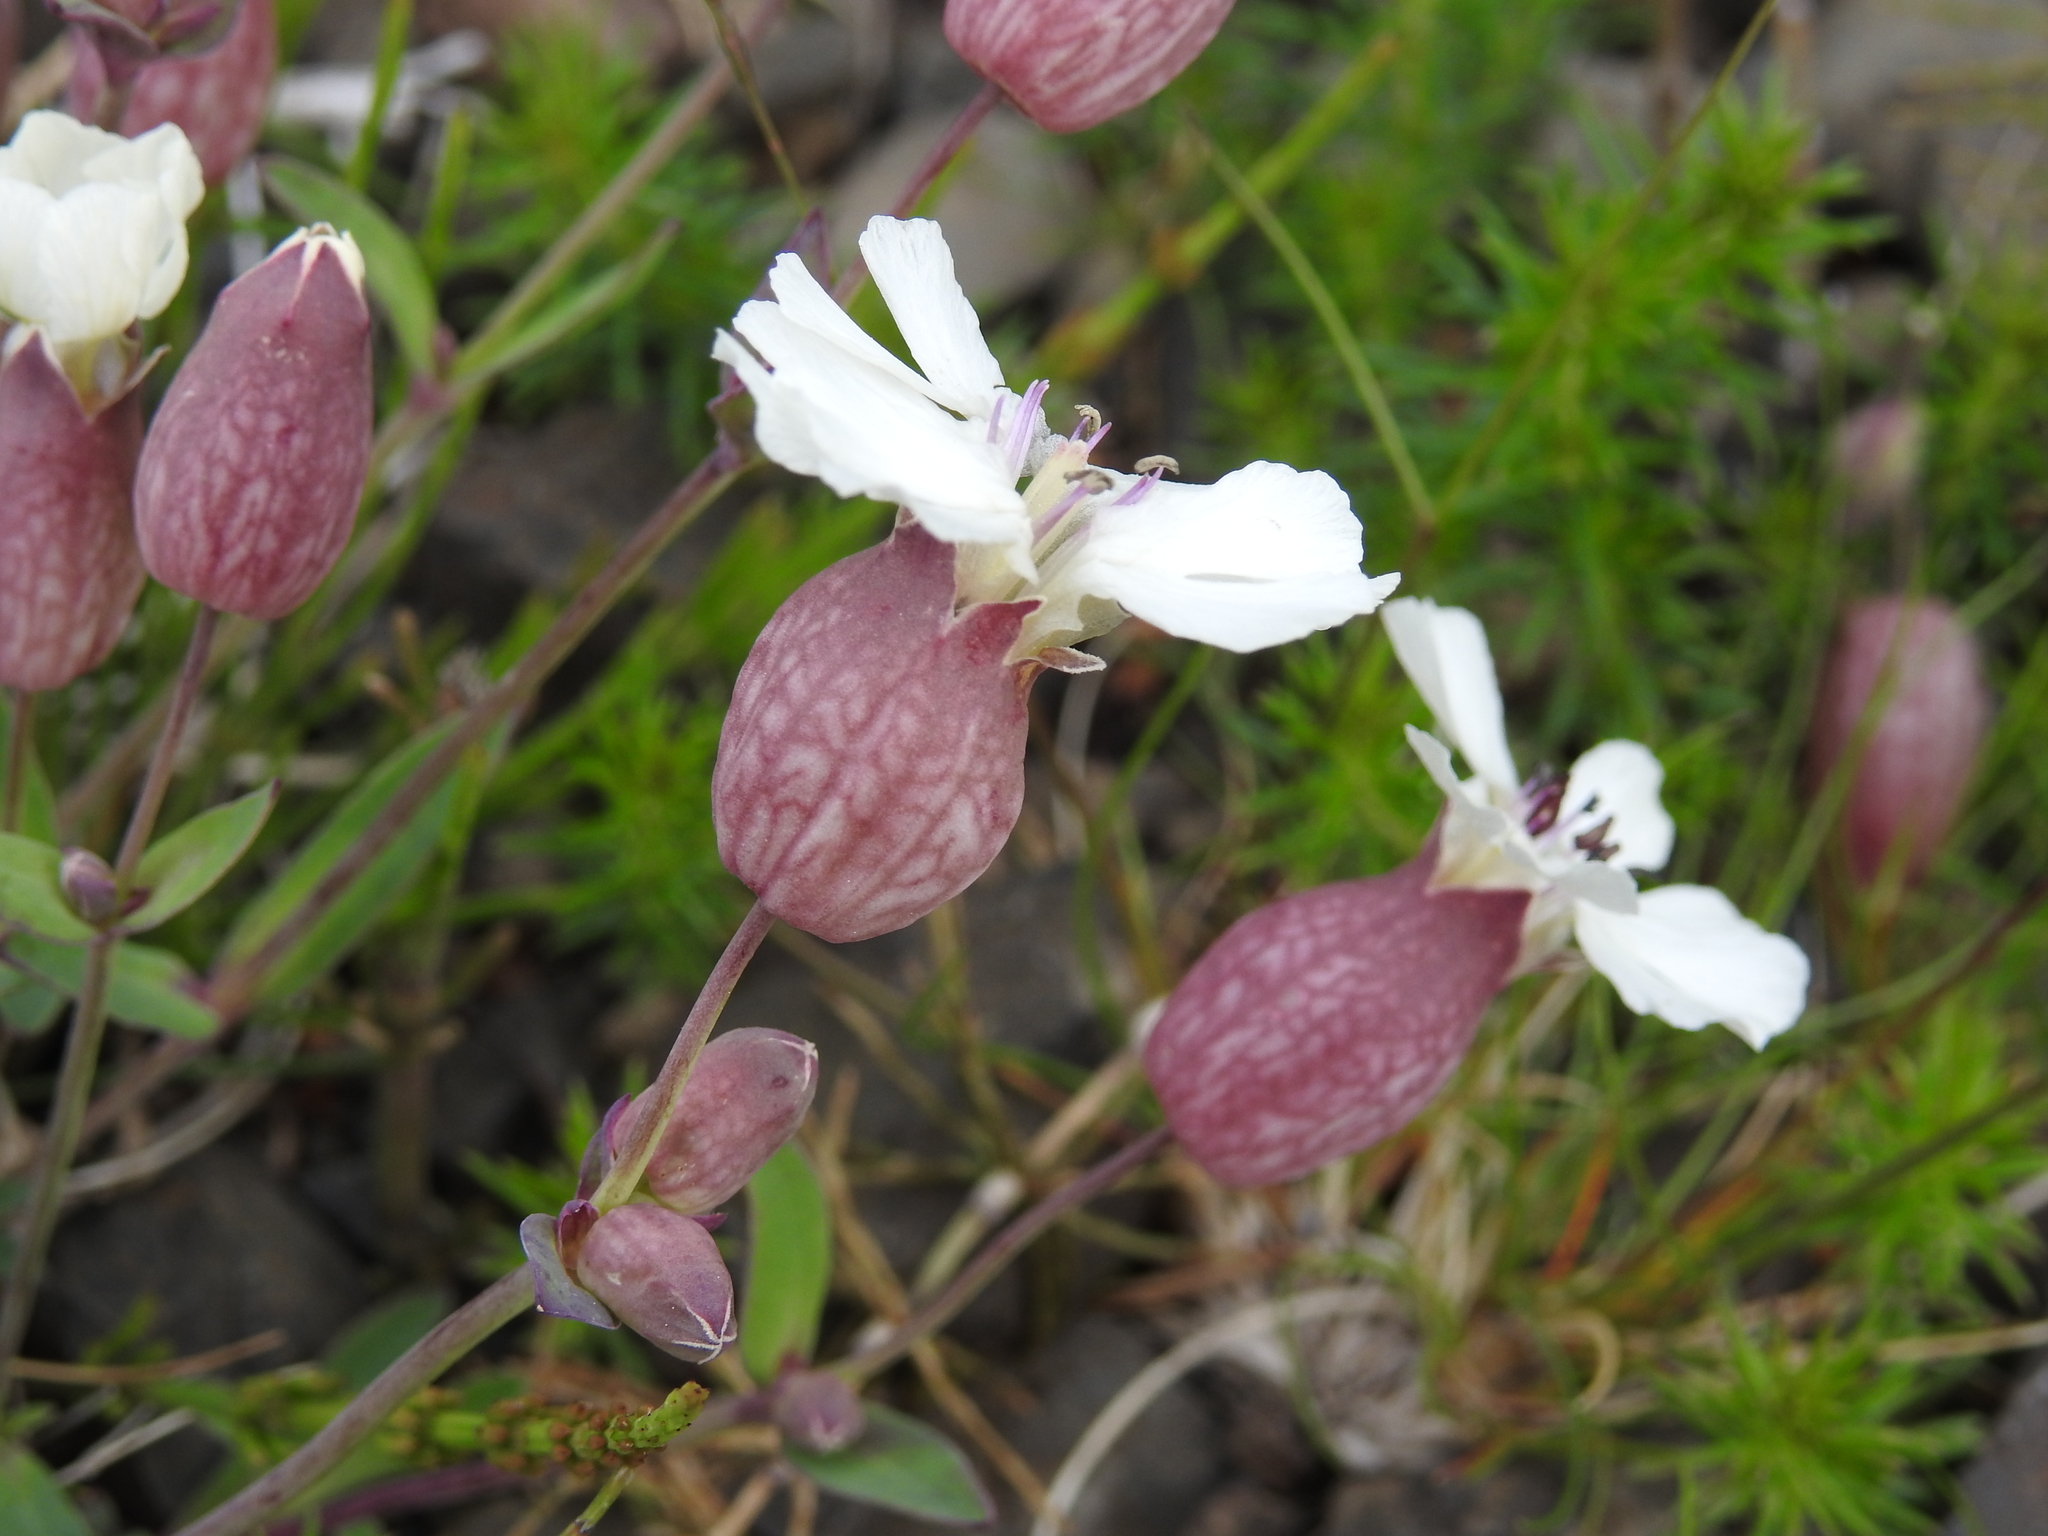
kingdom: Plantae
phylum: Tracheophyta
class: Magnoliopsida
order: Caryophyllales
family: Caryophyllaceae
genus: Silene
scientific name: Silene uniflora
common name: Sea campion
